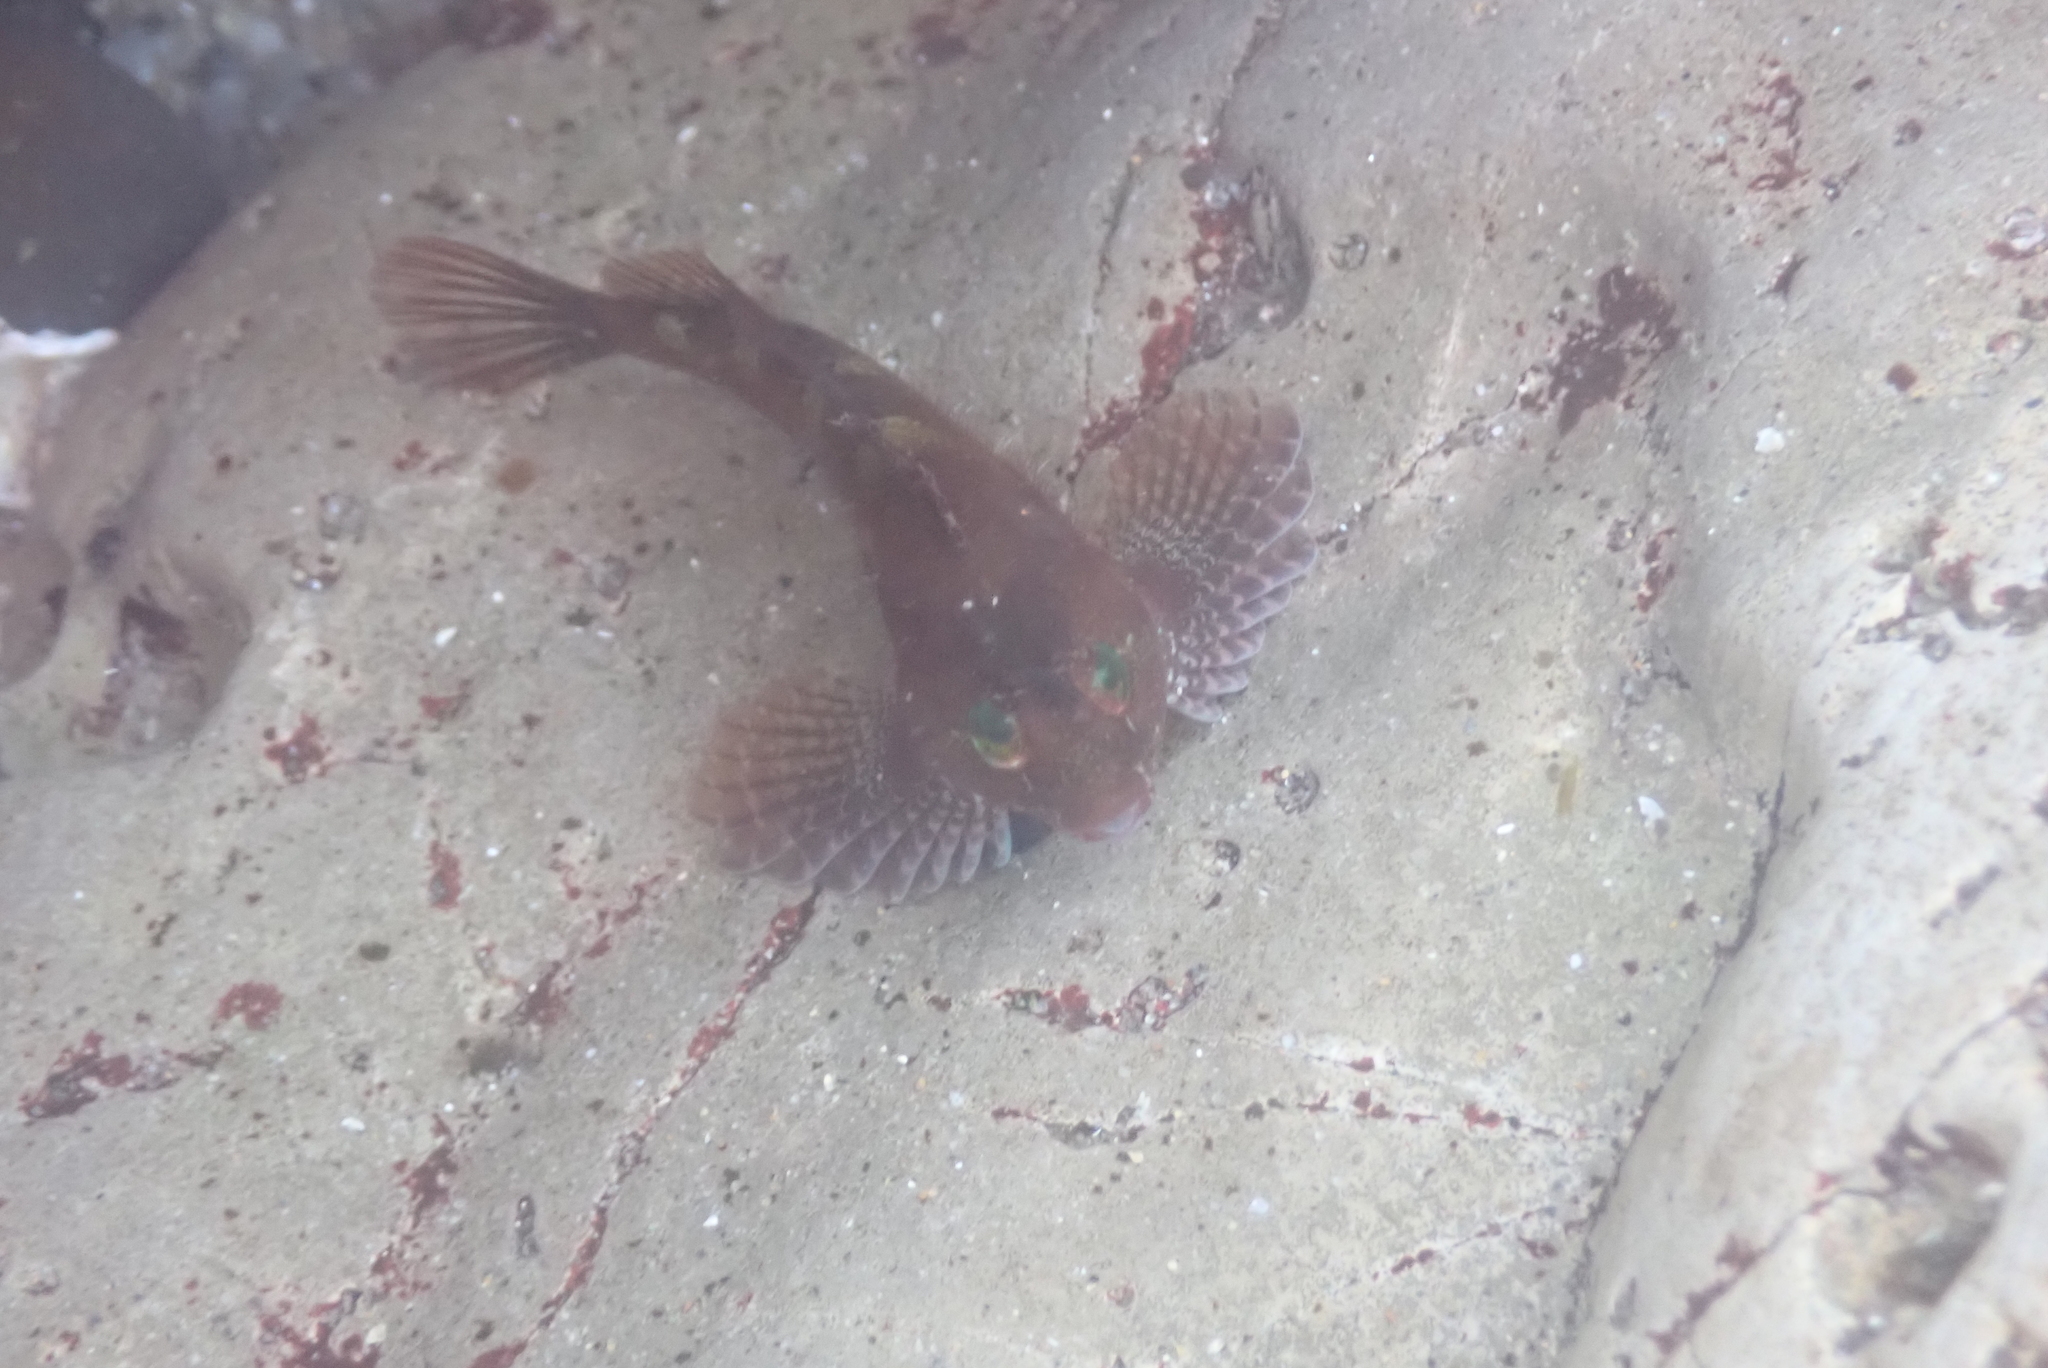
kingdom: Animalia
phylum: Chordata
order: Scorpaeniformes
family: Cottidae
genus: Oligocottus
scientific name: Oligocottus snyderi
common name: Fluffy sculpin
